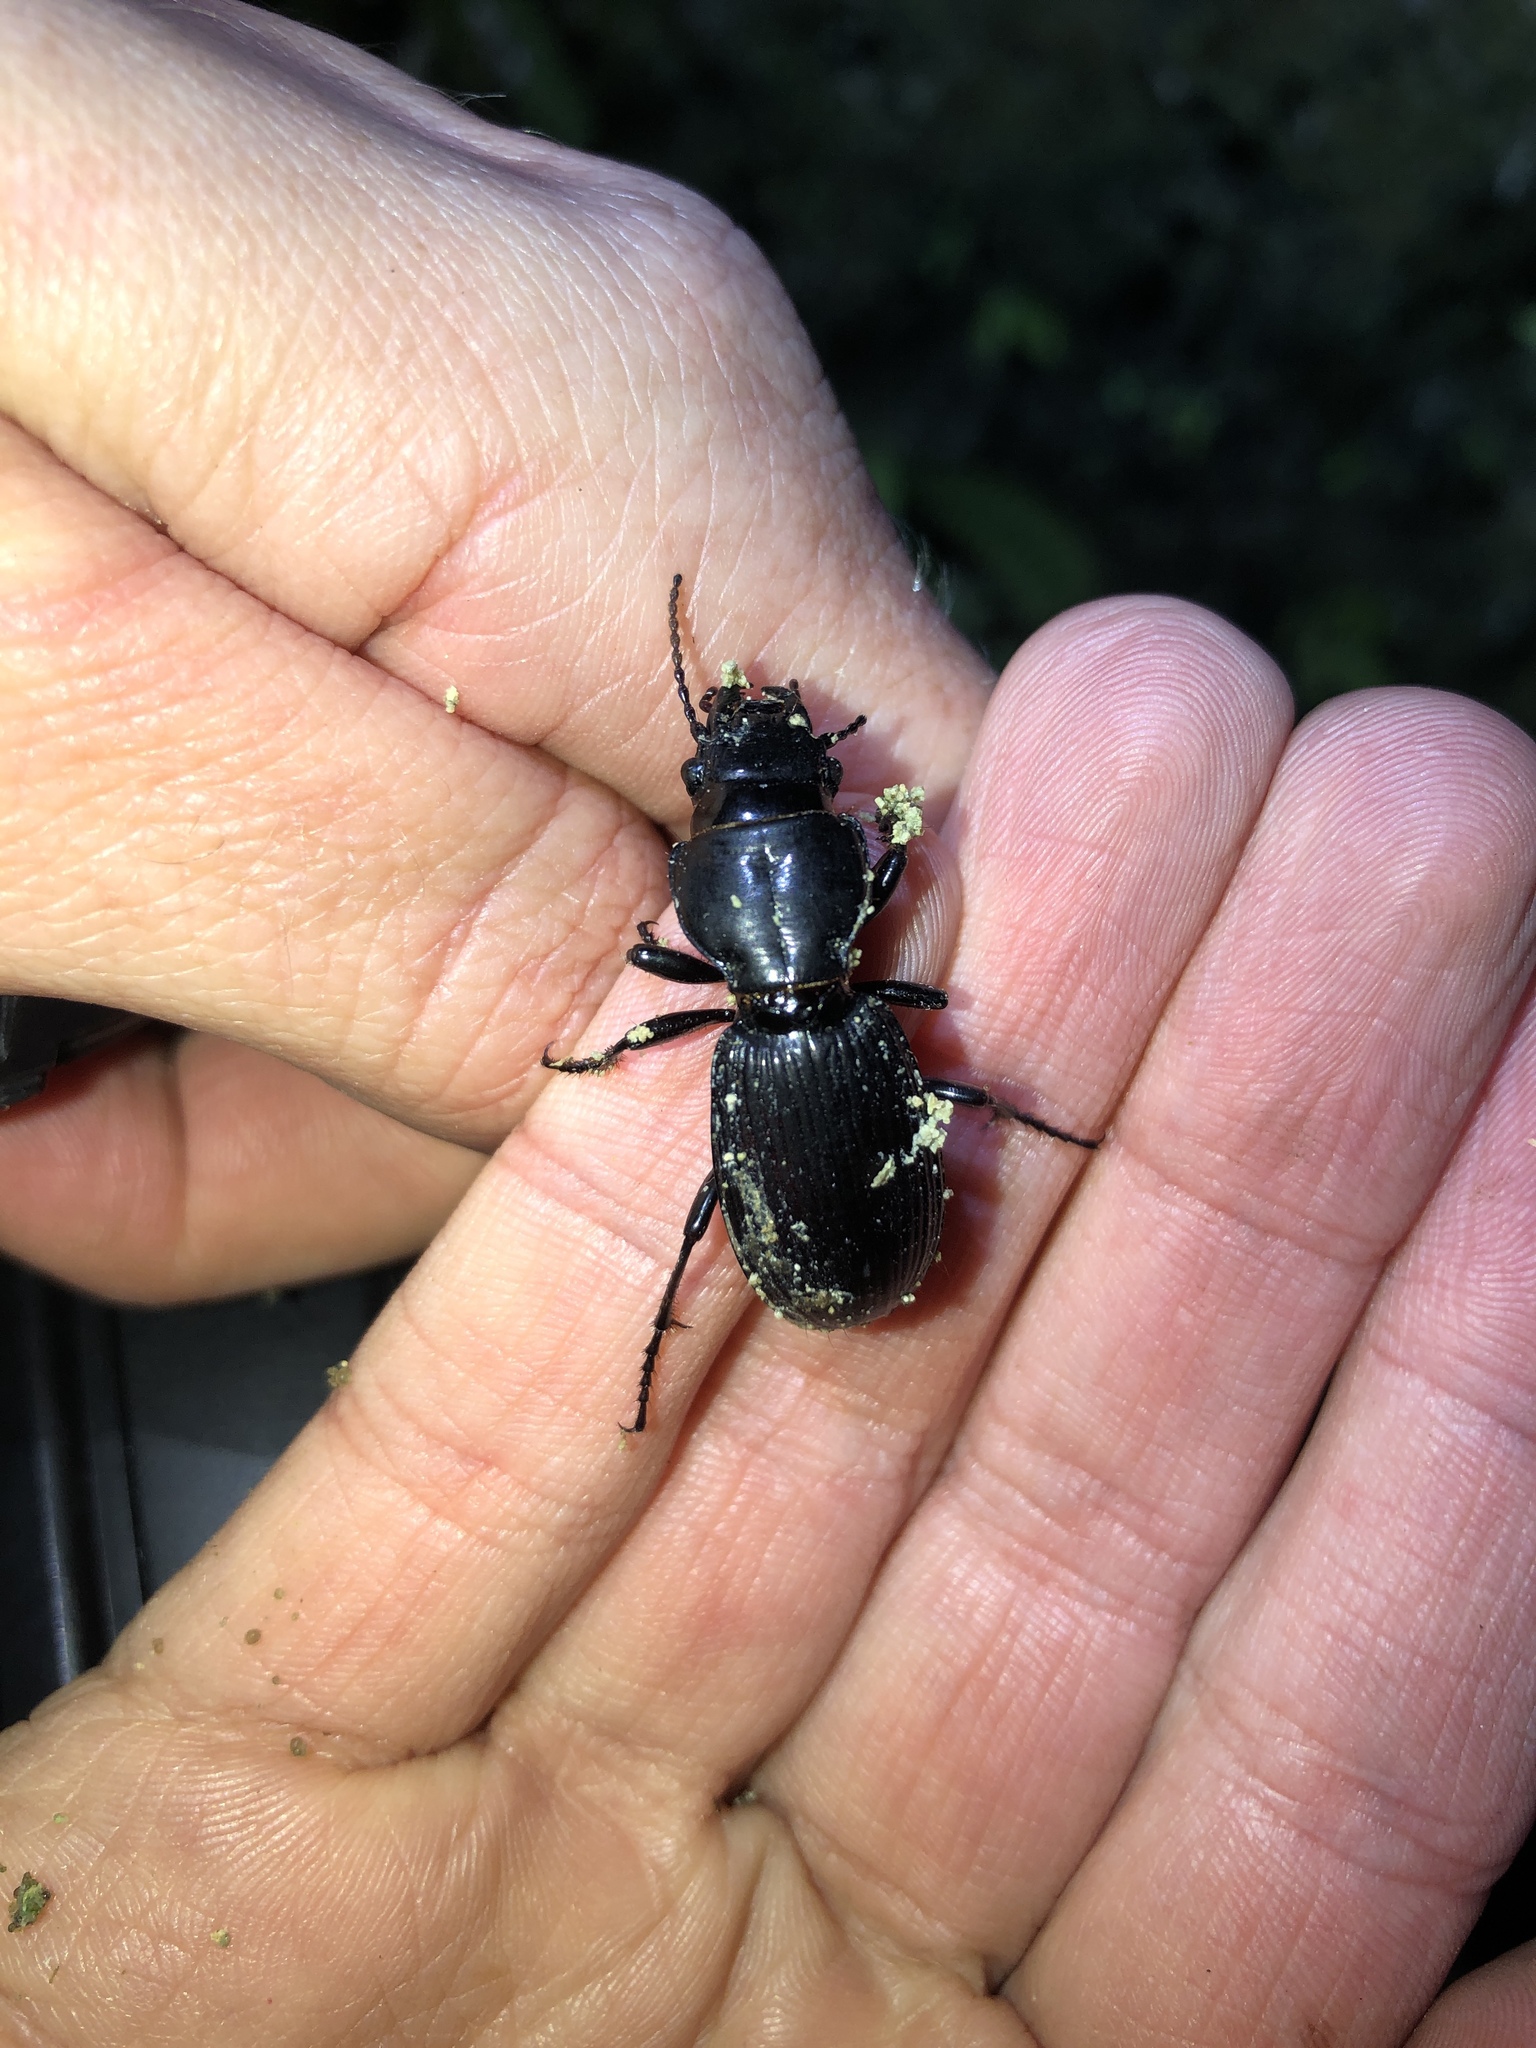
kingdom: Animalia
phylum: Arthropoda
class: Insecta
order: Coleoptera
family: Carabidae
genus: Mecodema
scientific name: Mecodema oconnori
